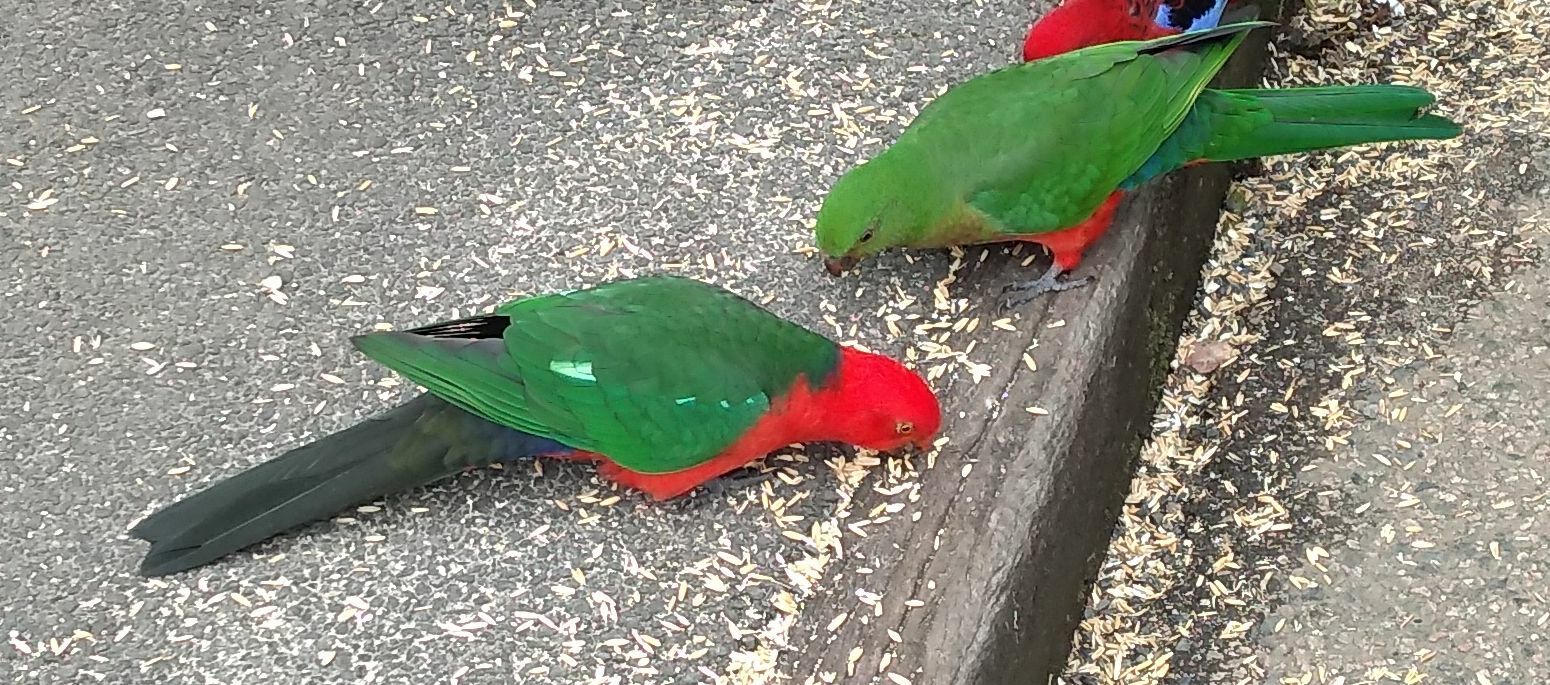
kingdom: Animalia
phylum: Chordata
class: Aves
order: Psittaciformes
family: Psittacidae
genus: Alisterus
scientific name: Alisterus scapularis
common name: Australian king parrot
